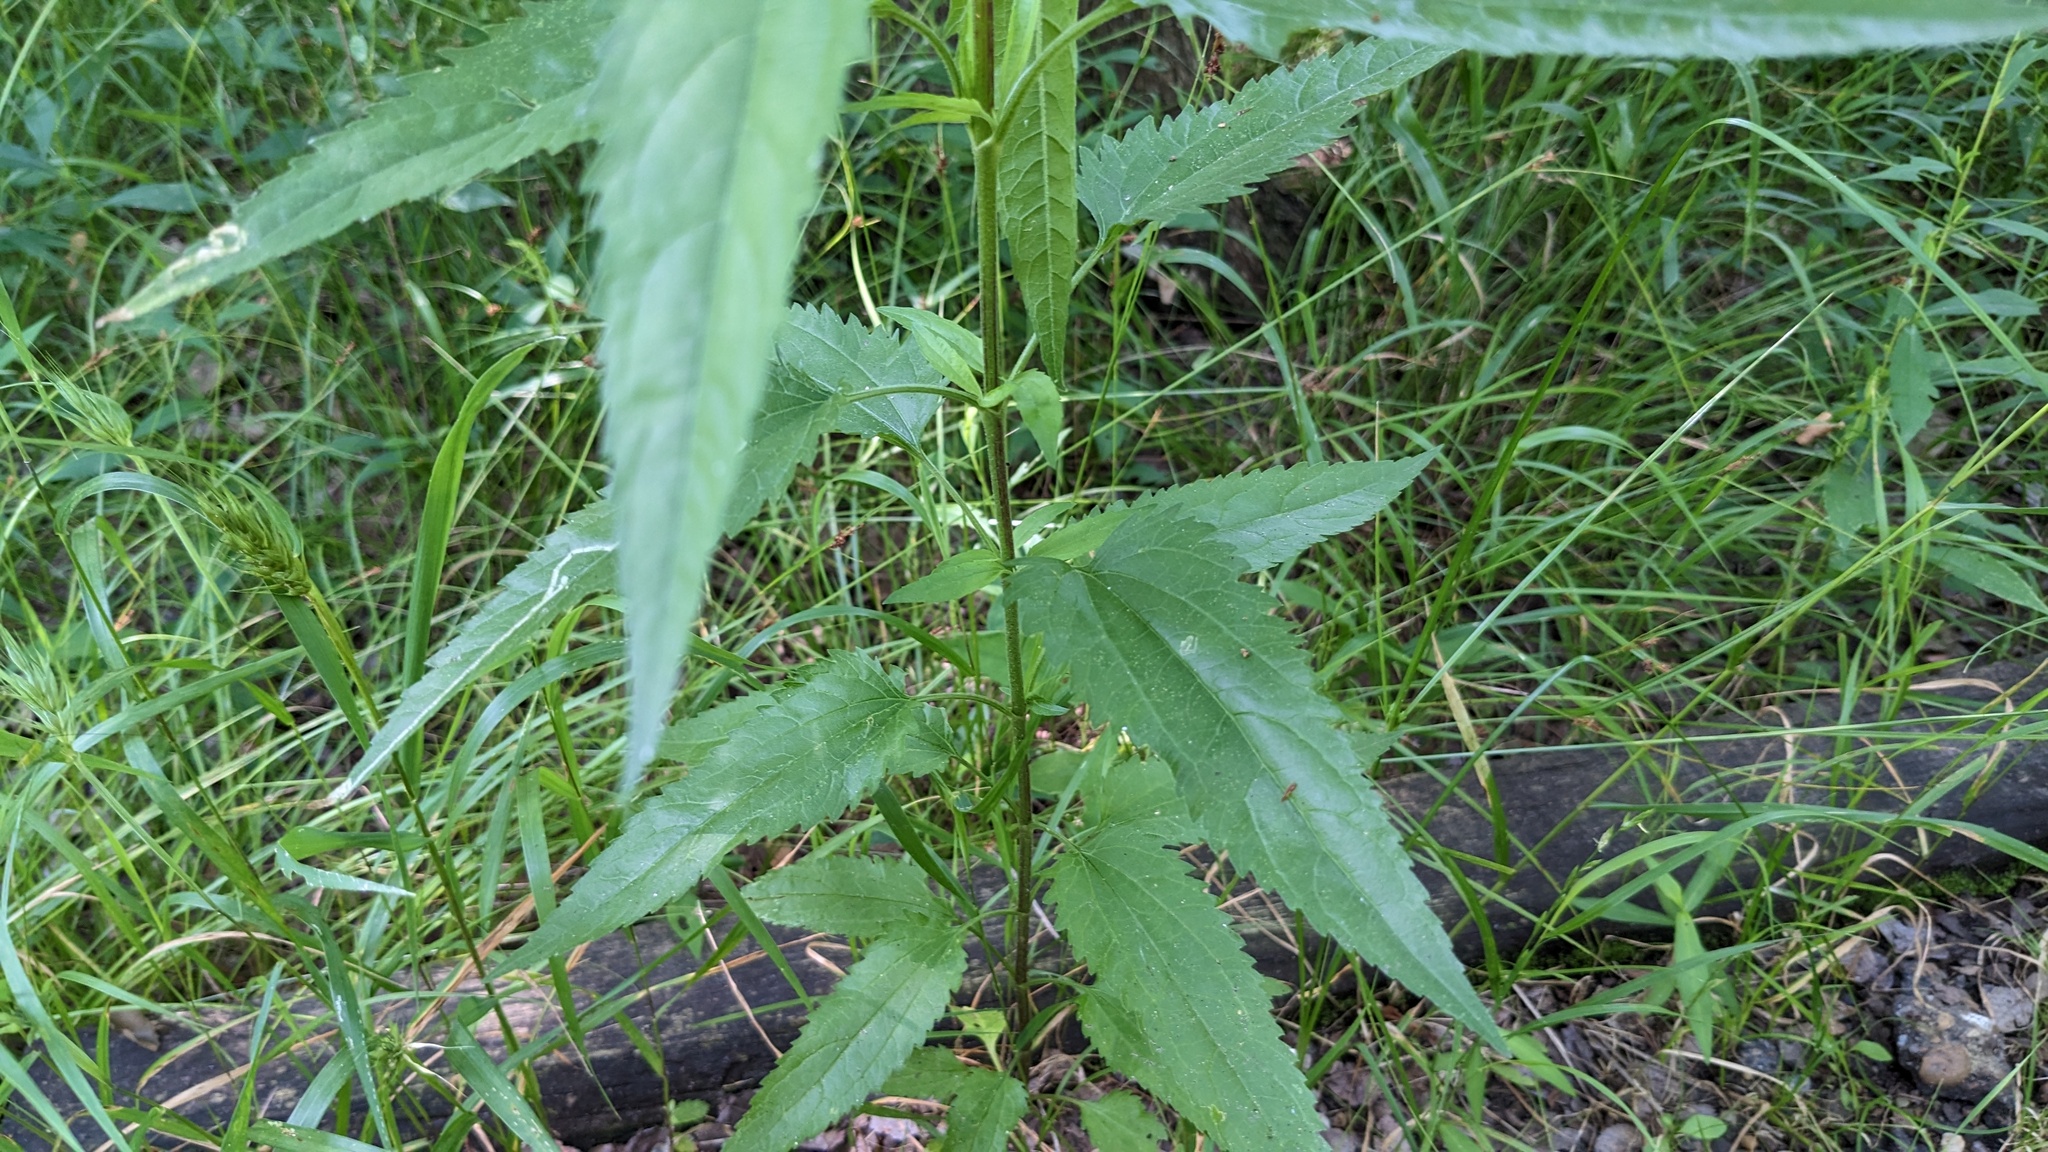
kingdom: Plantae
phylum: Tracheophyta
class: Magnoliopsida
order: Asterales
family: Asteraceae
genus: Eupatorium
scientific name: Eupatorium serotinum
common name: Late boneset
